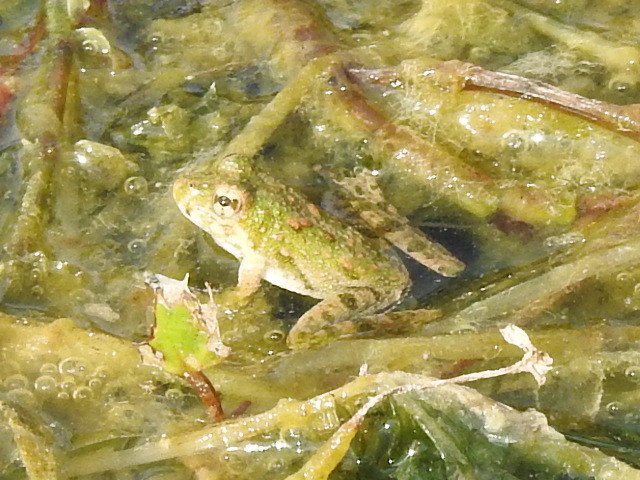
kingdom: Animalia
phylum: Chordata
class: Amphibia
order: Anura
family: Hylidae
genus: Acris
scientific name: Acris blanchardi
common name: Blanchard's cricket frog
